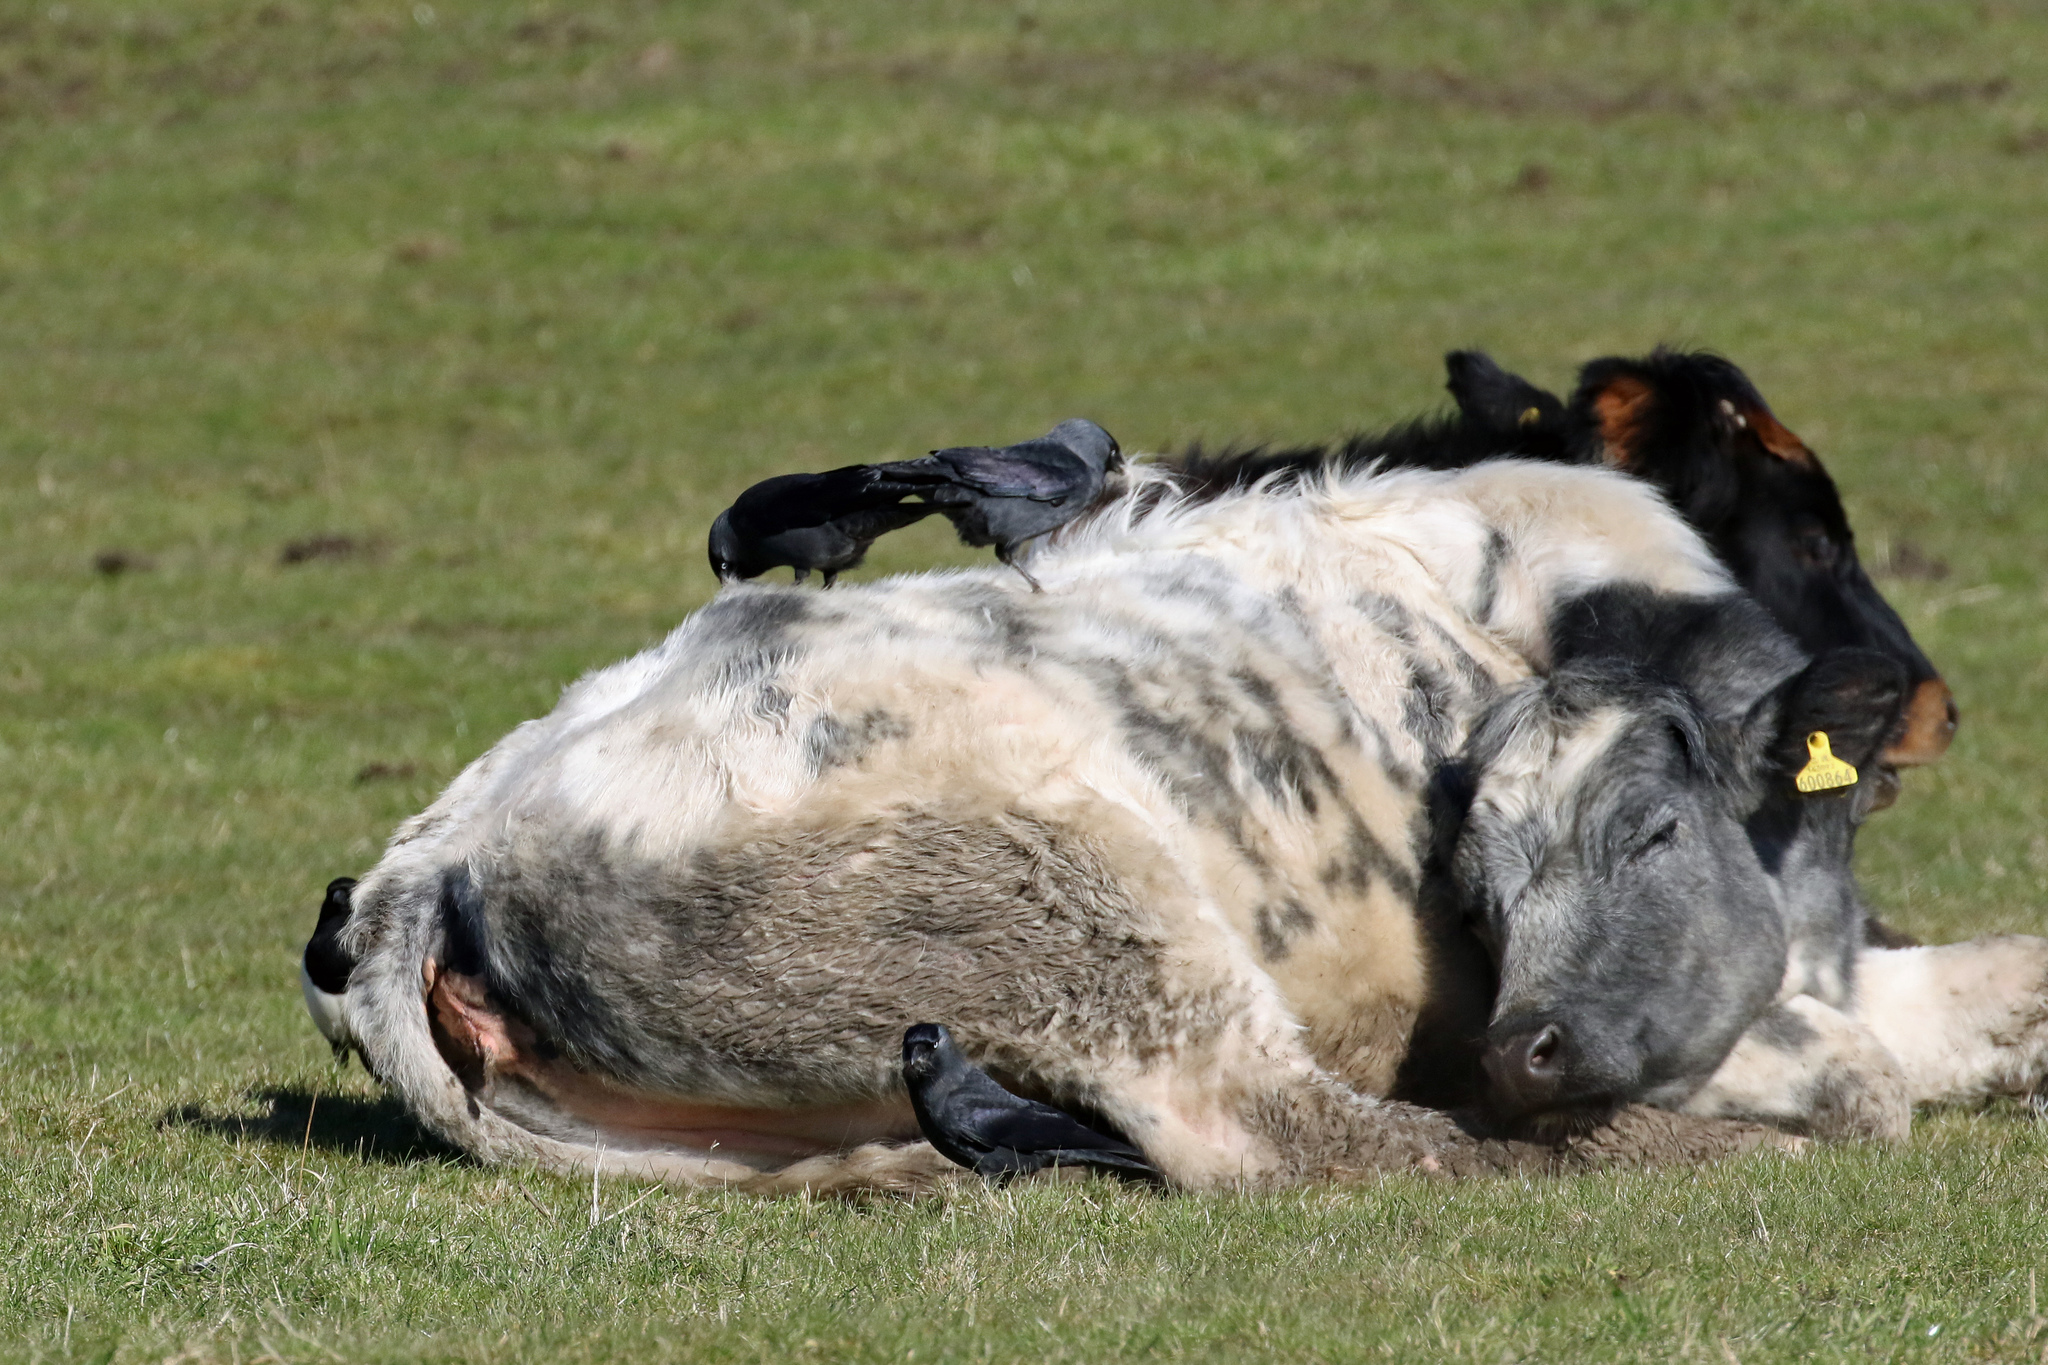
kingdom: Animalia
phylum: Chordata
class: Aves
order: Passeriformes
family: Corvidae
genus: Coloeus
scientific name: Coloeus monedula
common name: Western jackdaw
